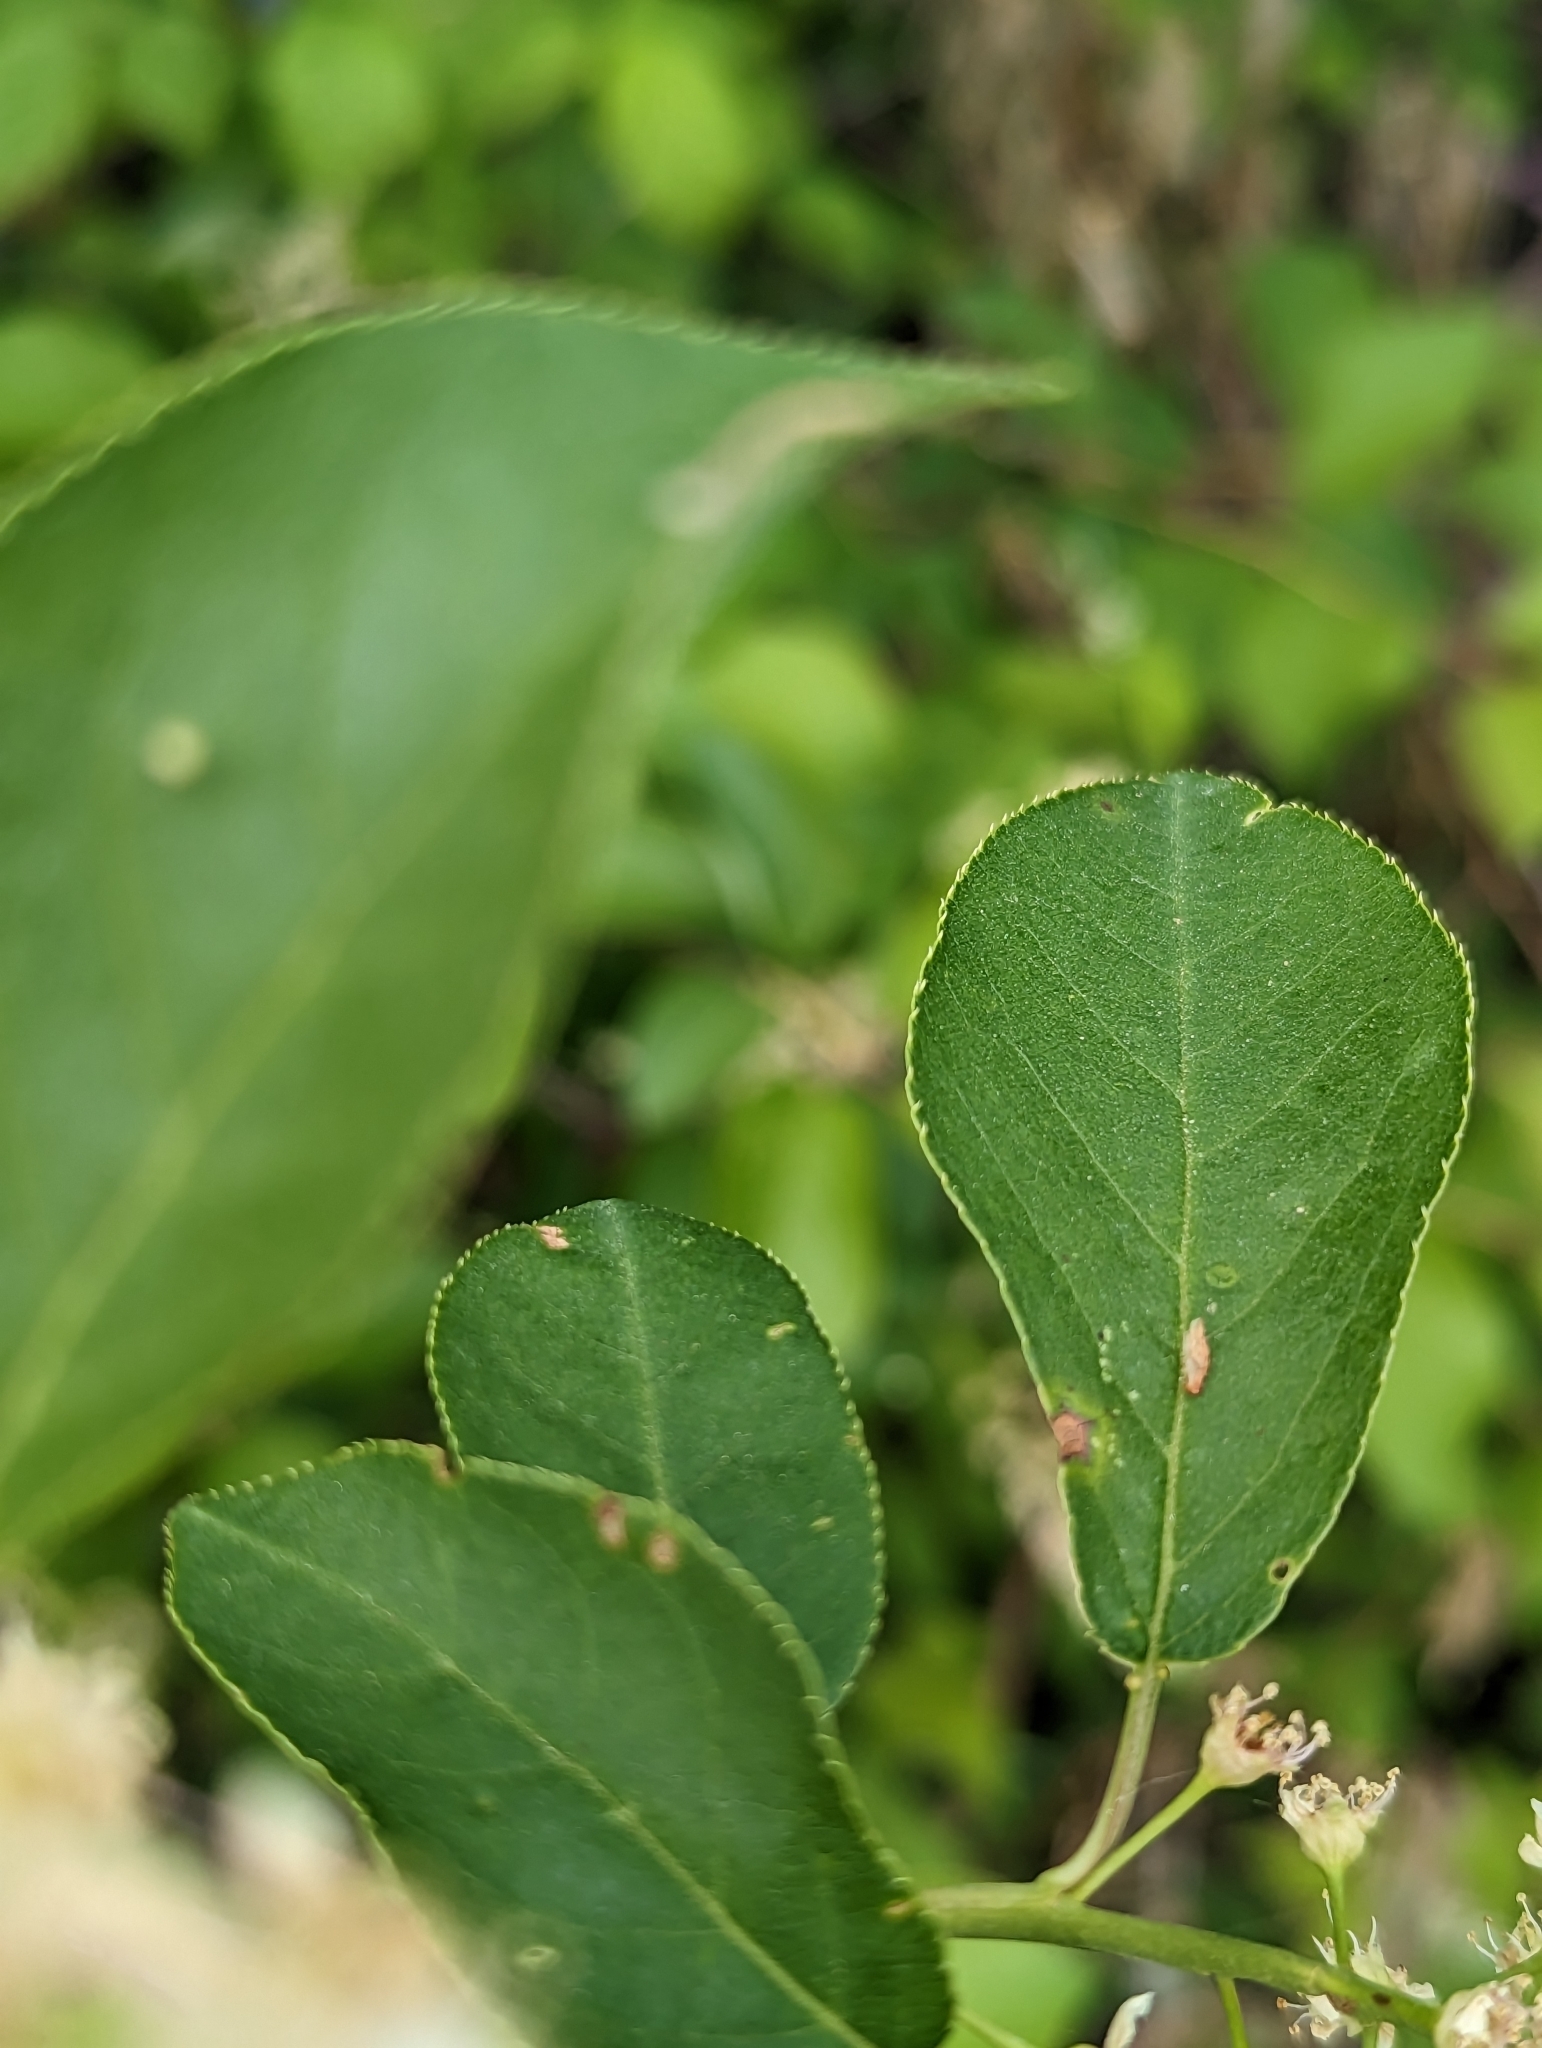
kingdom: Plantae
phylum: Tracheophyta
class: Magnoliopsida
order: Rosales
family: Rosaceae
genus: Prunus
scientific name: Prunus virginiana
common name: Chokecherry
